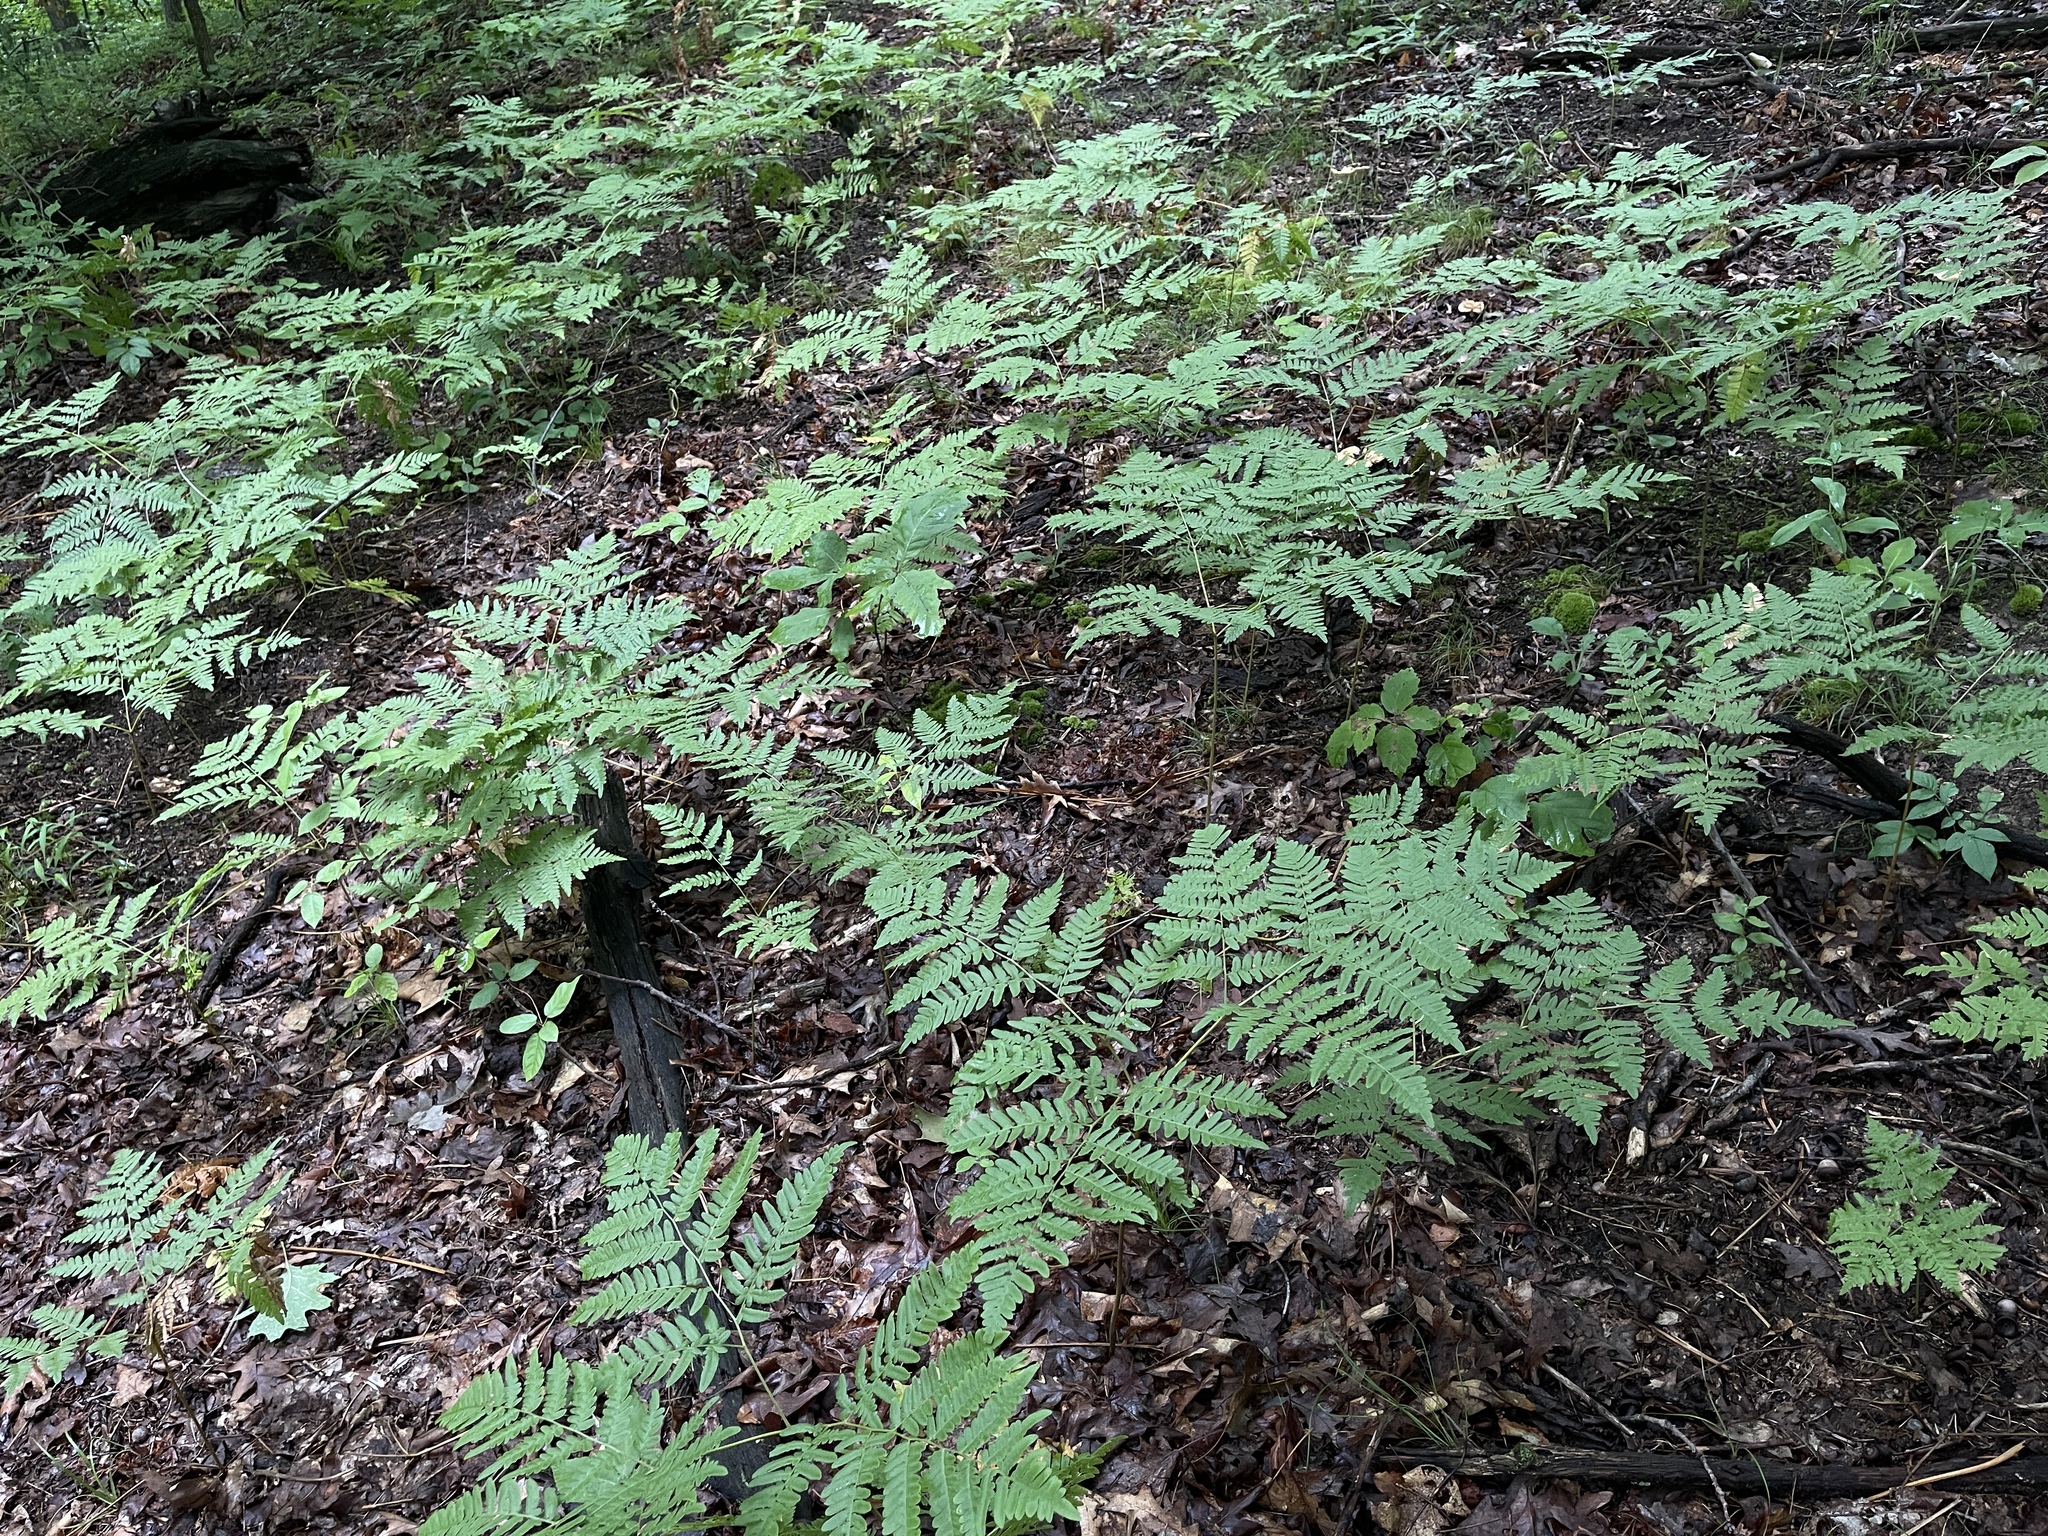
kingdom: Plantae
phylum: Tracheophyta
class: Polypodiopsida
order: Polypodiales
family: Dennstaedtiaceae
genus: Pteridium
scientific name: Pteridium aquilinum
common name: Bracken
